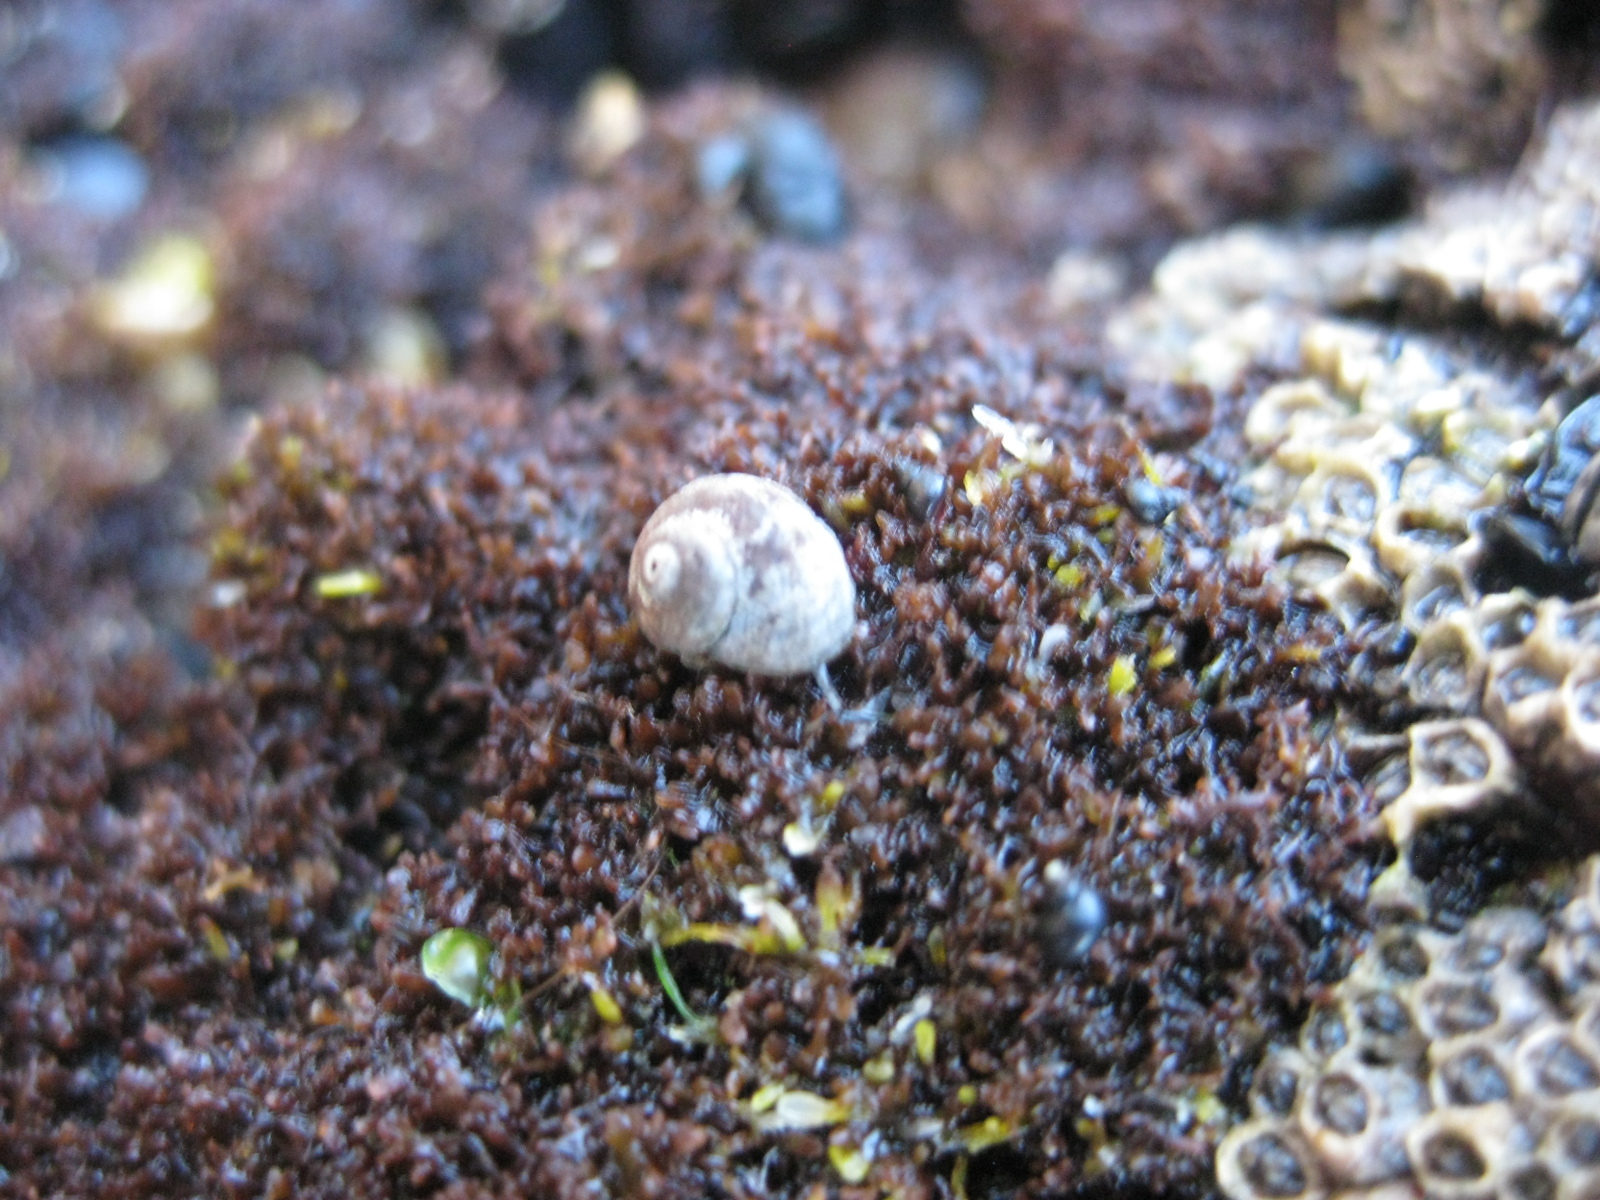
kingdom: Animalia
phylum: Mollusca
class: Gastropoda
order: Littorinimorpha
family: Littorinidae
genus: Risellopsis
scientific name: Risellopsis varia
